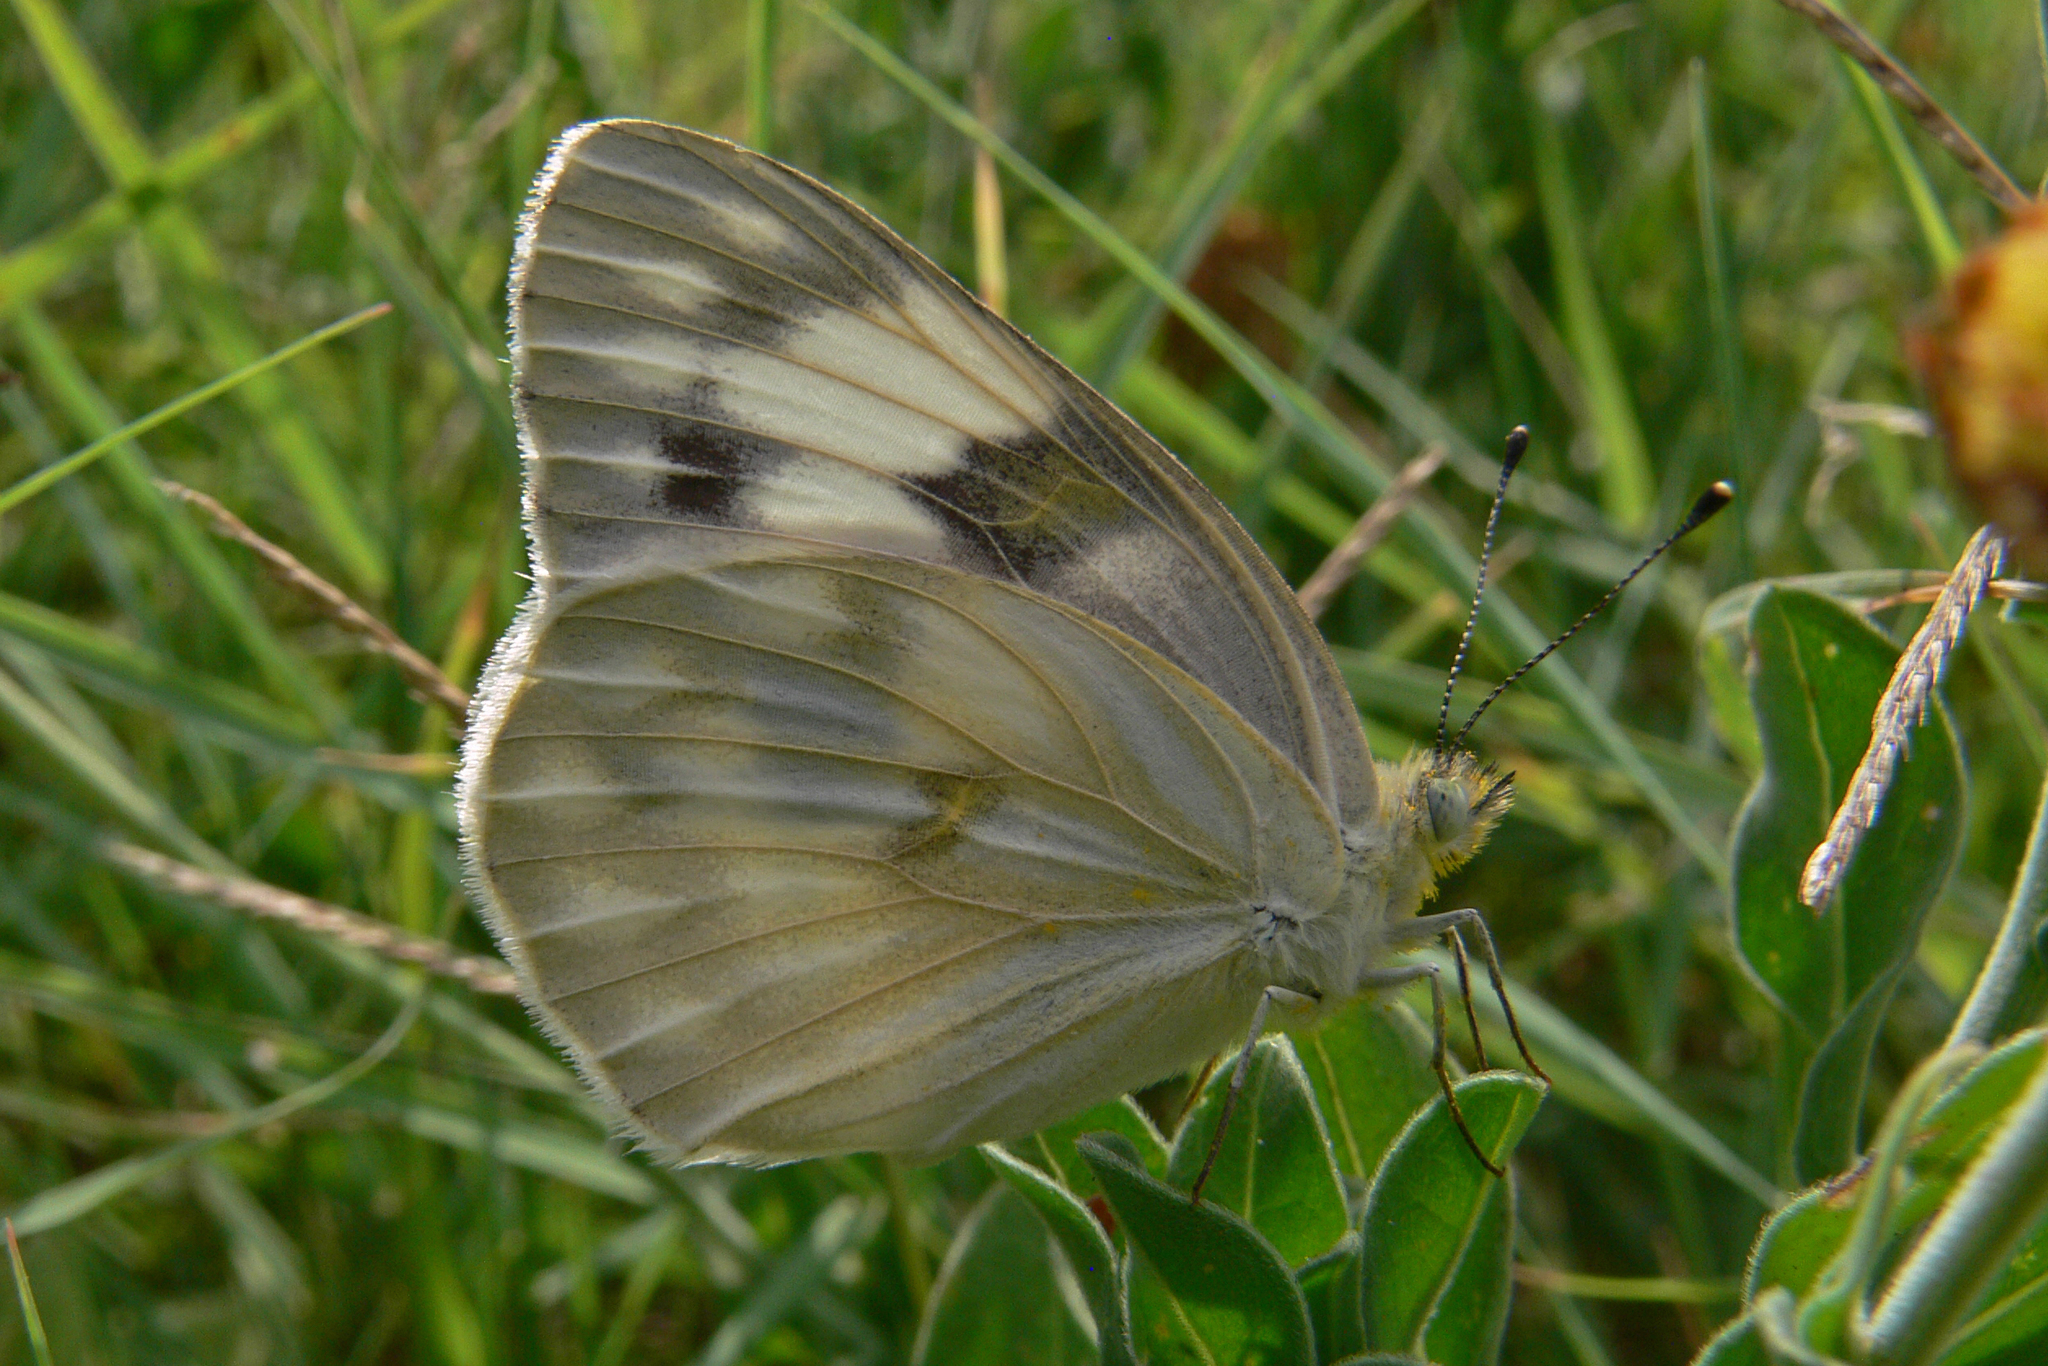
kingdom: Animalia
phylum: Arthropoda
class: Insecta
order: Lepidoptera
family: Pieridae
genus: Pontia
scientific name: Pontia protodice
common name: Checkered white
